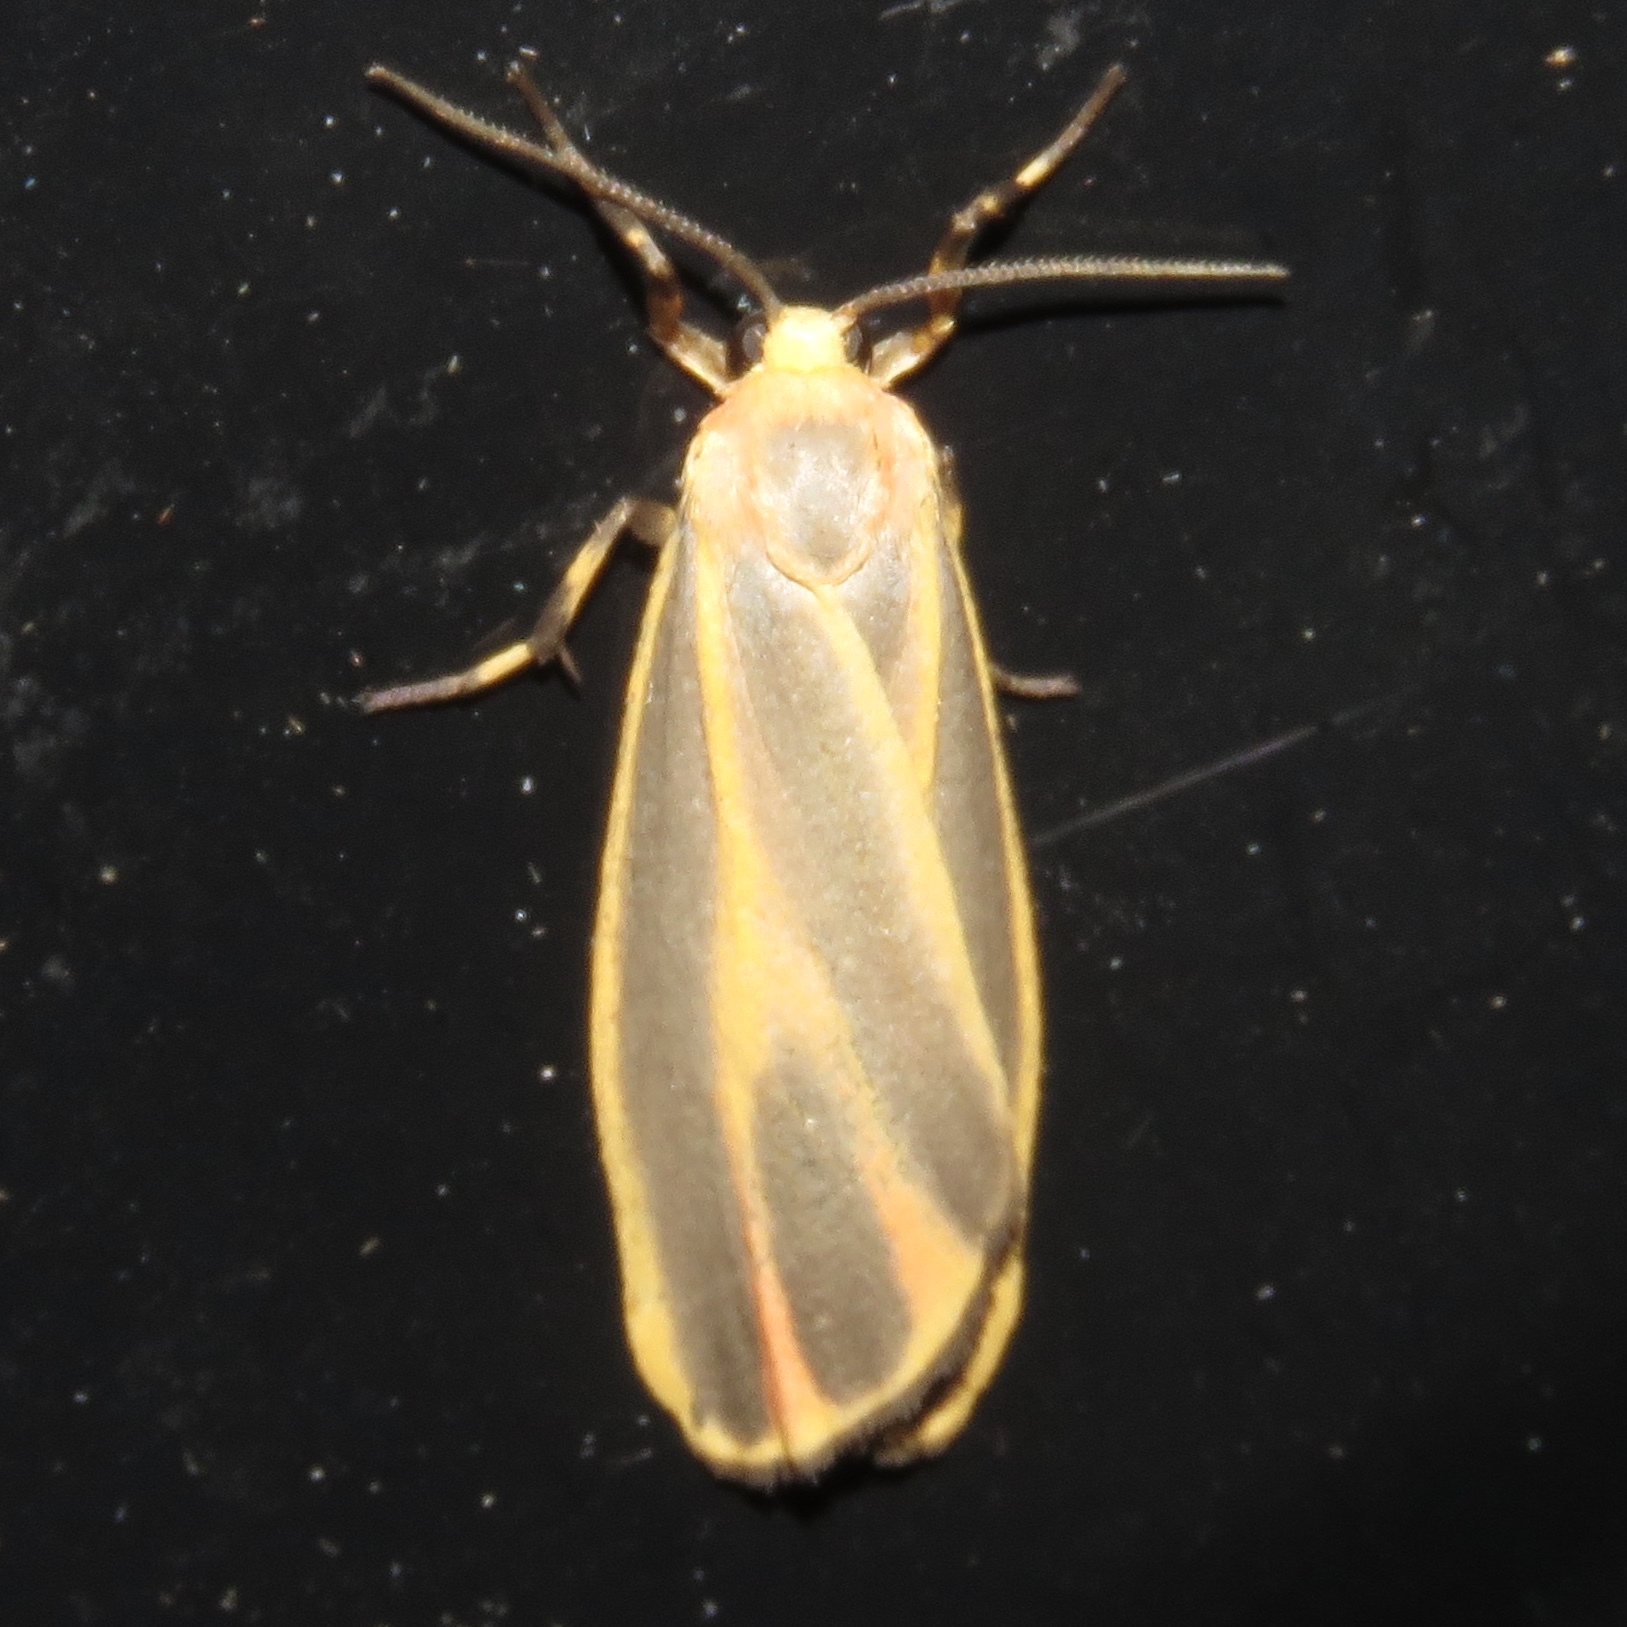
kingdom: Animalia
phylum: Arthropoda
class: Insecta
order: Lepidoptera
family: Erebidae
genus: Hypoprepia
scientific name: Hypoprepia fucosa
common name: Painted lichen moth
